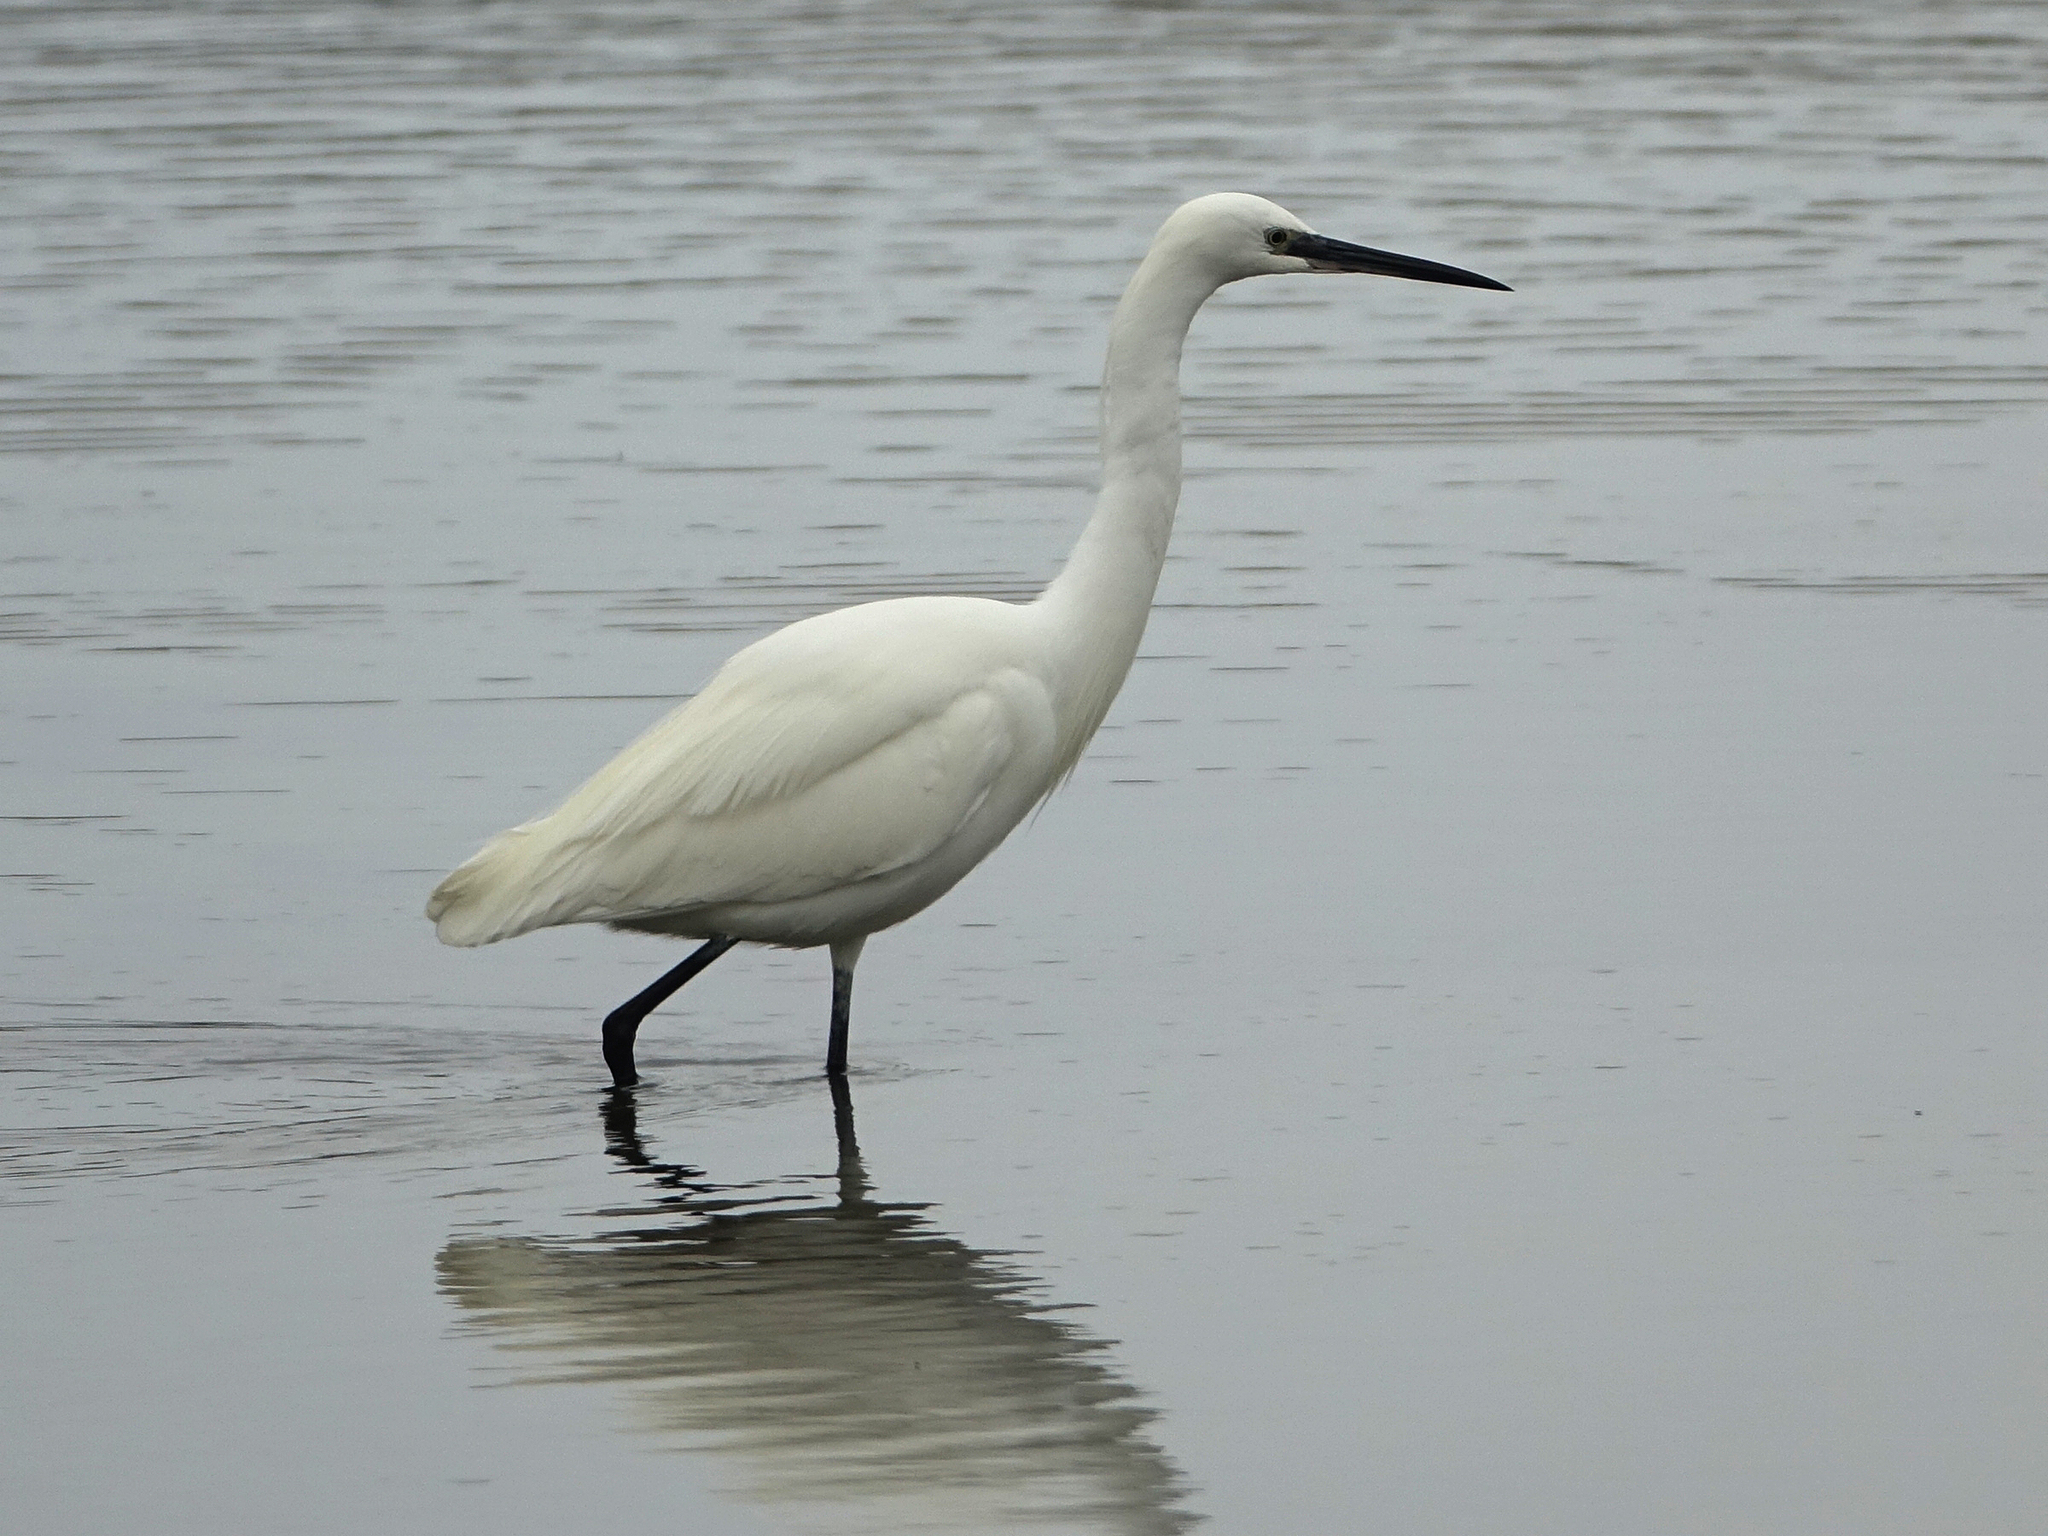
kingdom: Animalia
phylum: Chordata
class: Aves
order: Pelecaniformes
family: Ardeidae
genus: Egretta
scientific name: Egretta garzetta
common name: Little egret
